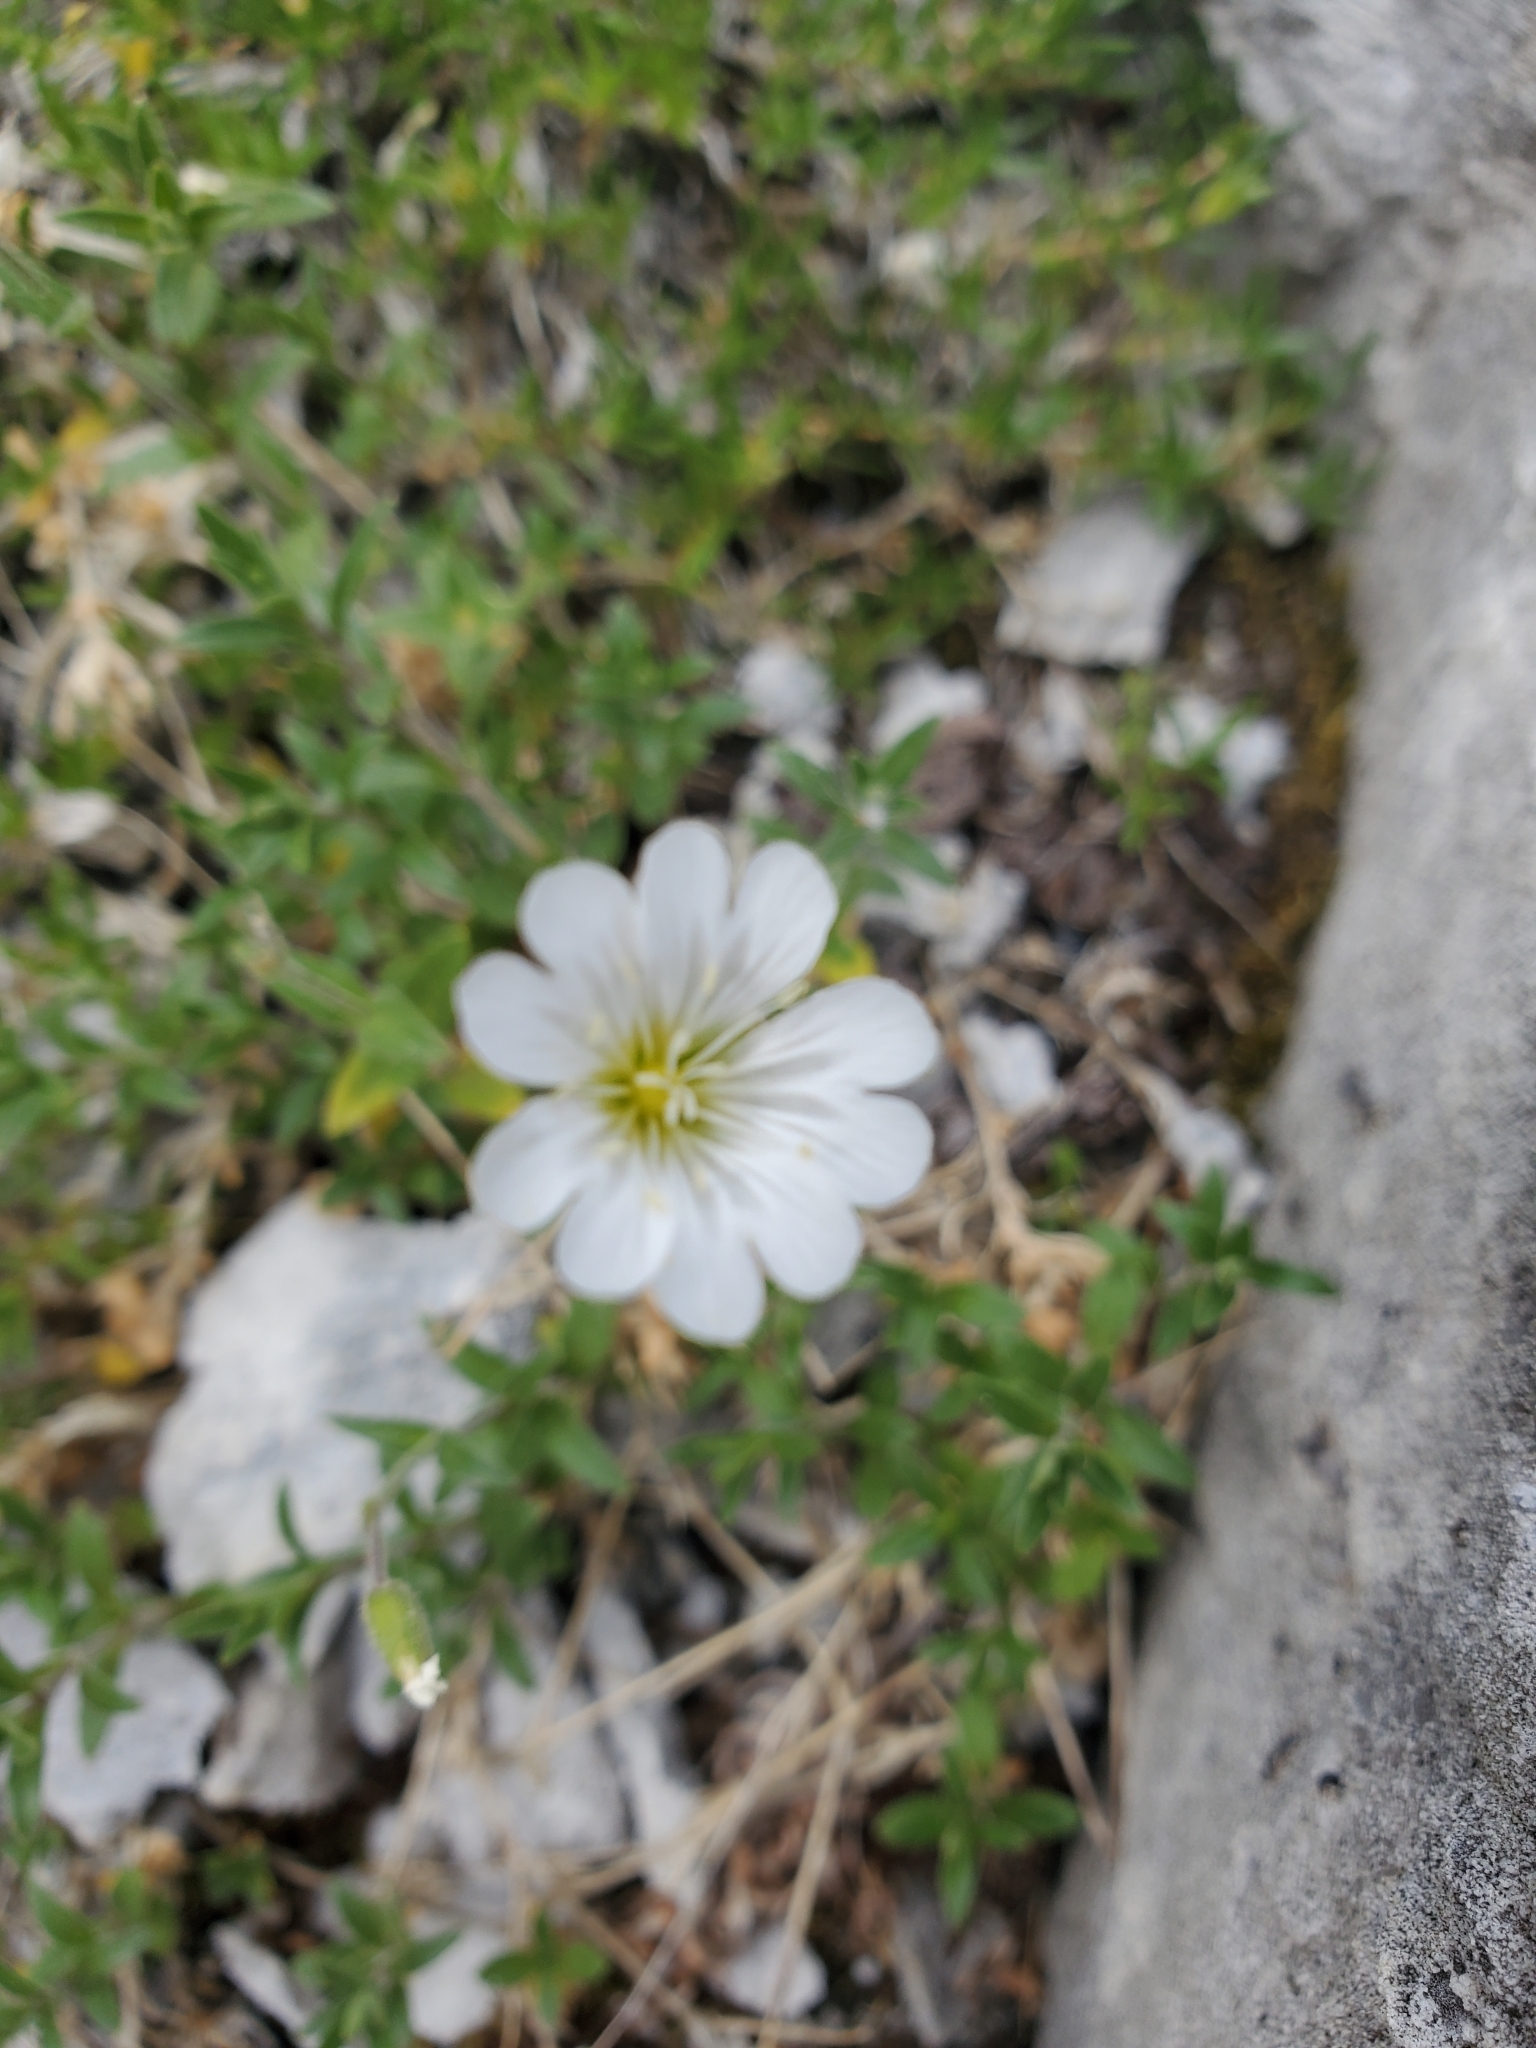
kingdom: Plantae
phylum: Tracheophyta
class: Magnoliopsida
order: Caryophyllales
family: Caryophyllaceae
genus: Cerastium
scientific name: Cerastium arvense
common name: Field mouse-ear
